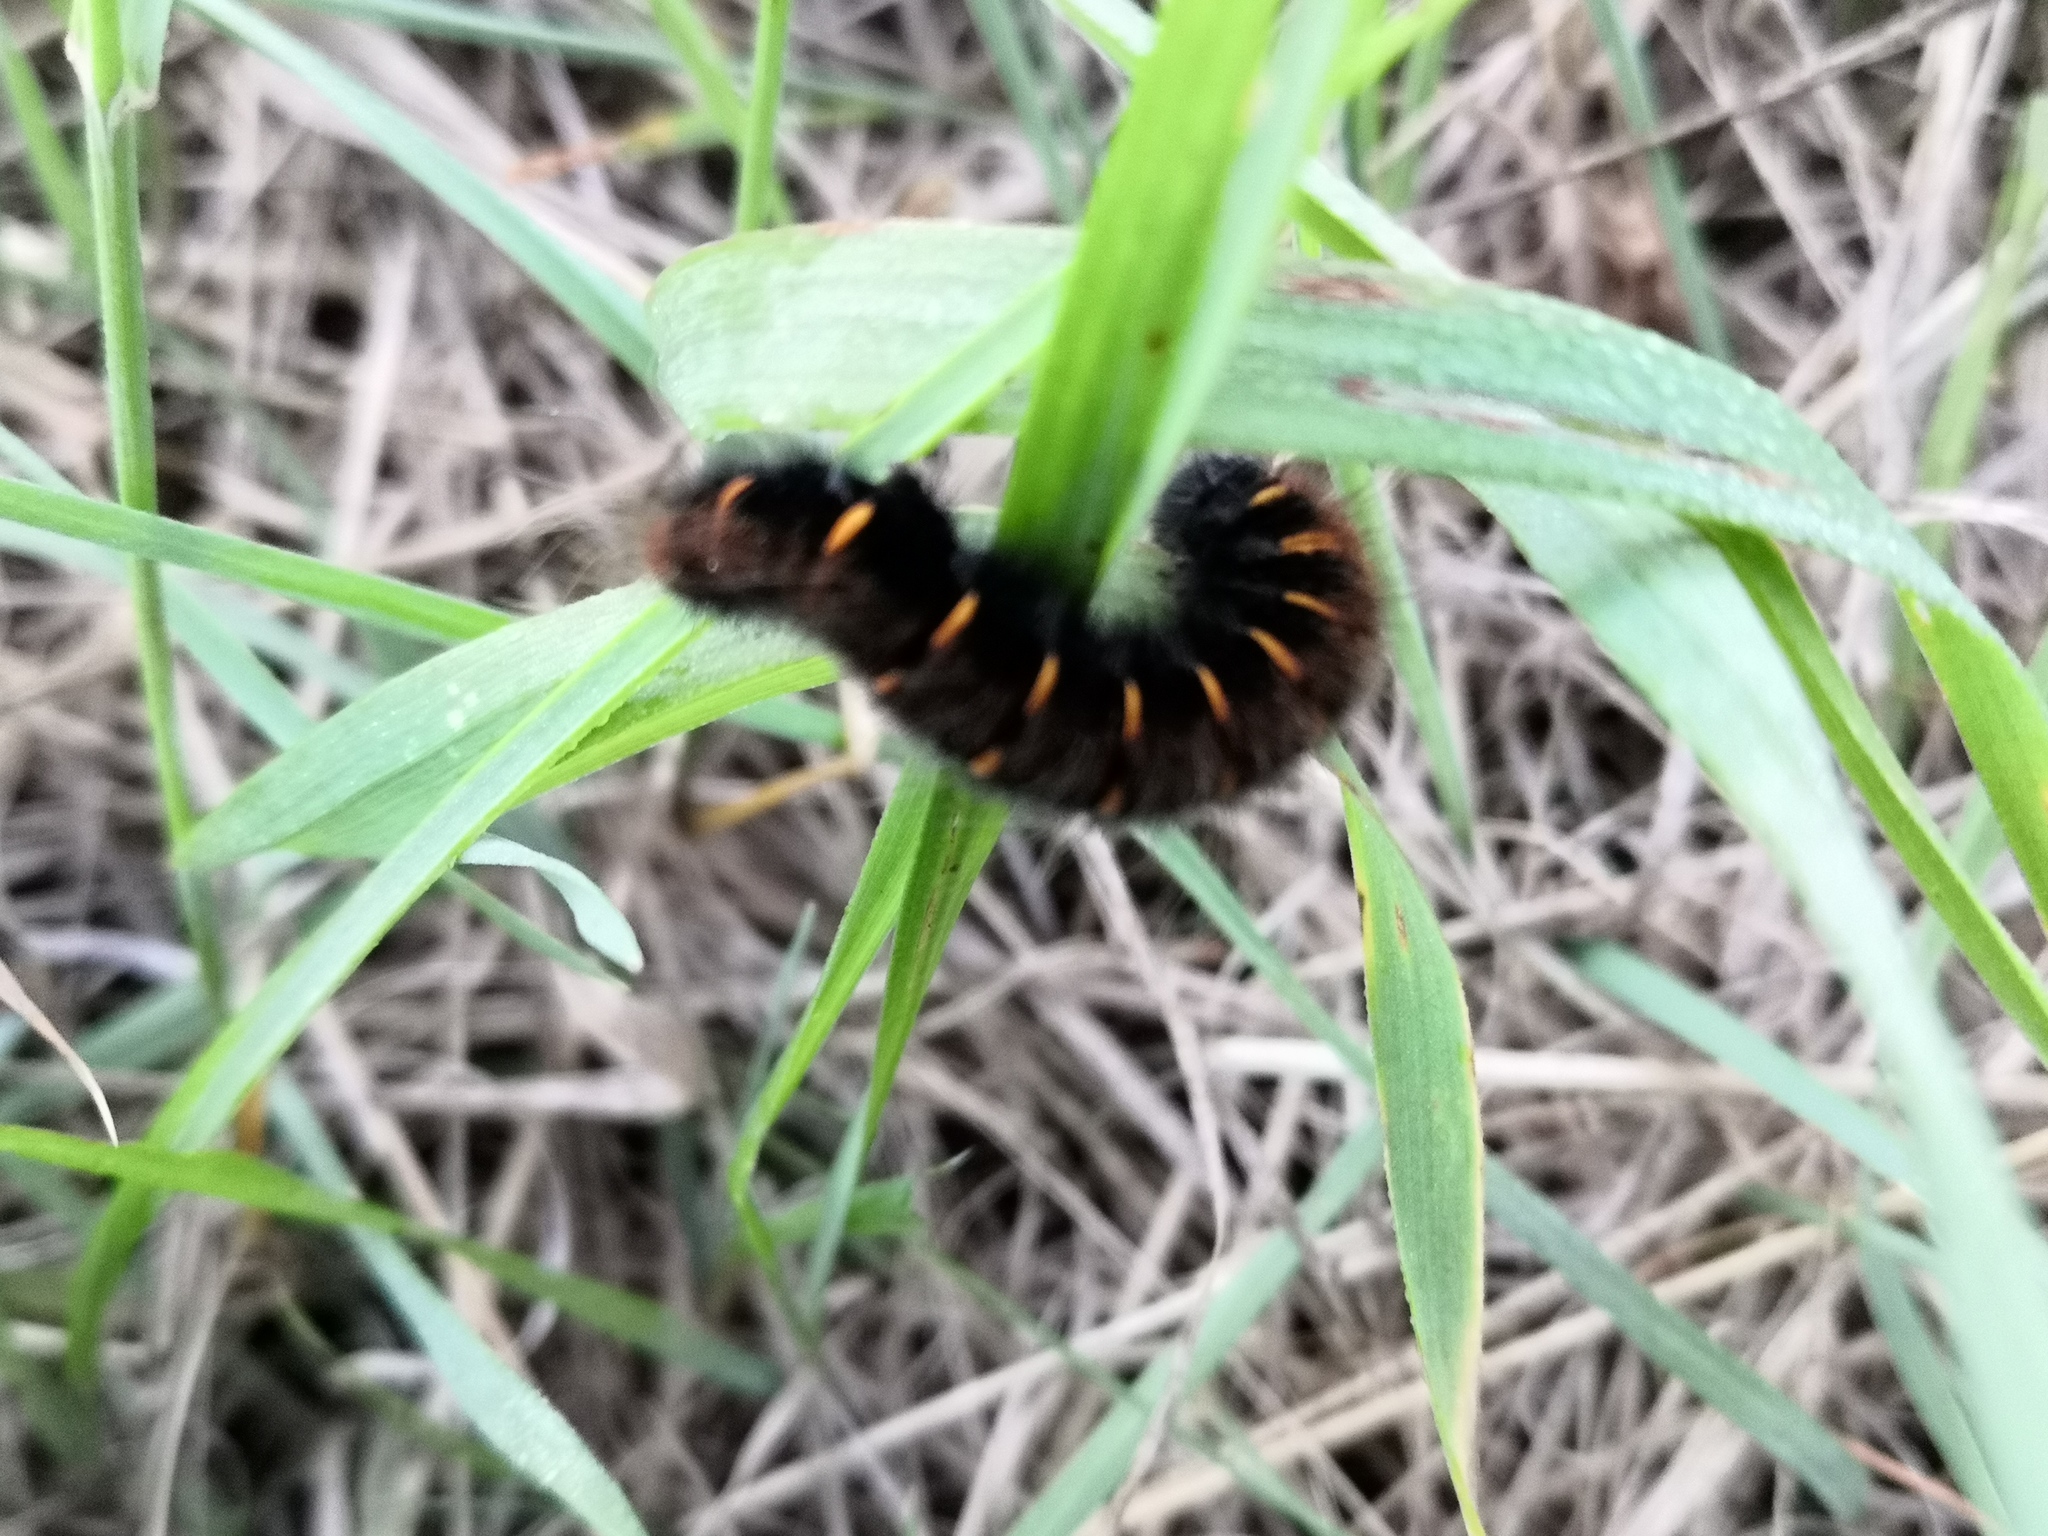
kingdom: Animalia
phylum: Arthropoda
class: Insecta
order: Lepidoptera
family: Lasiocampidae
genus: Macrothylacia
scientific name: Macrothylacia rubi
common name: Fox moth
